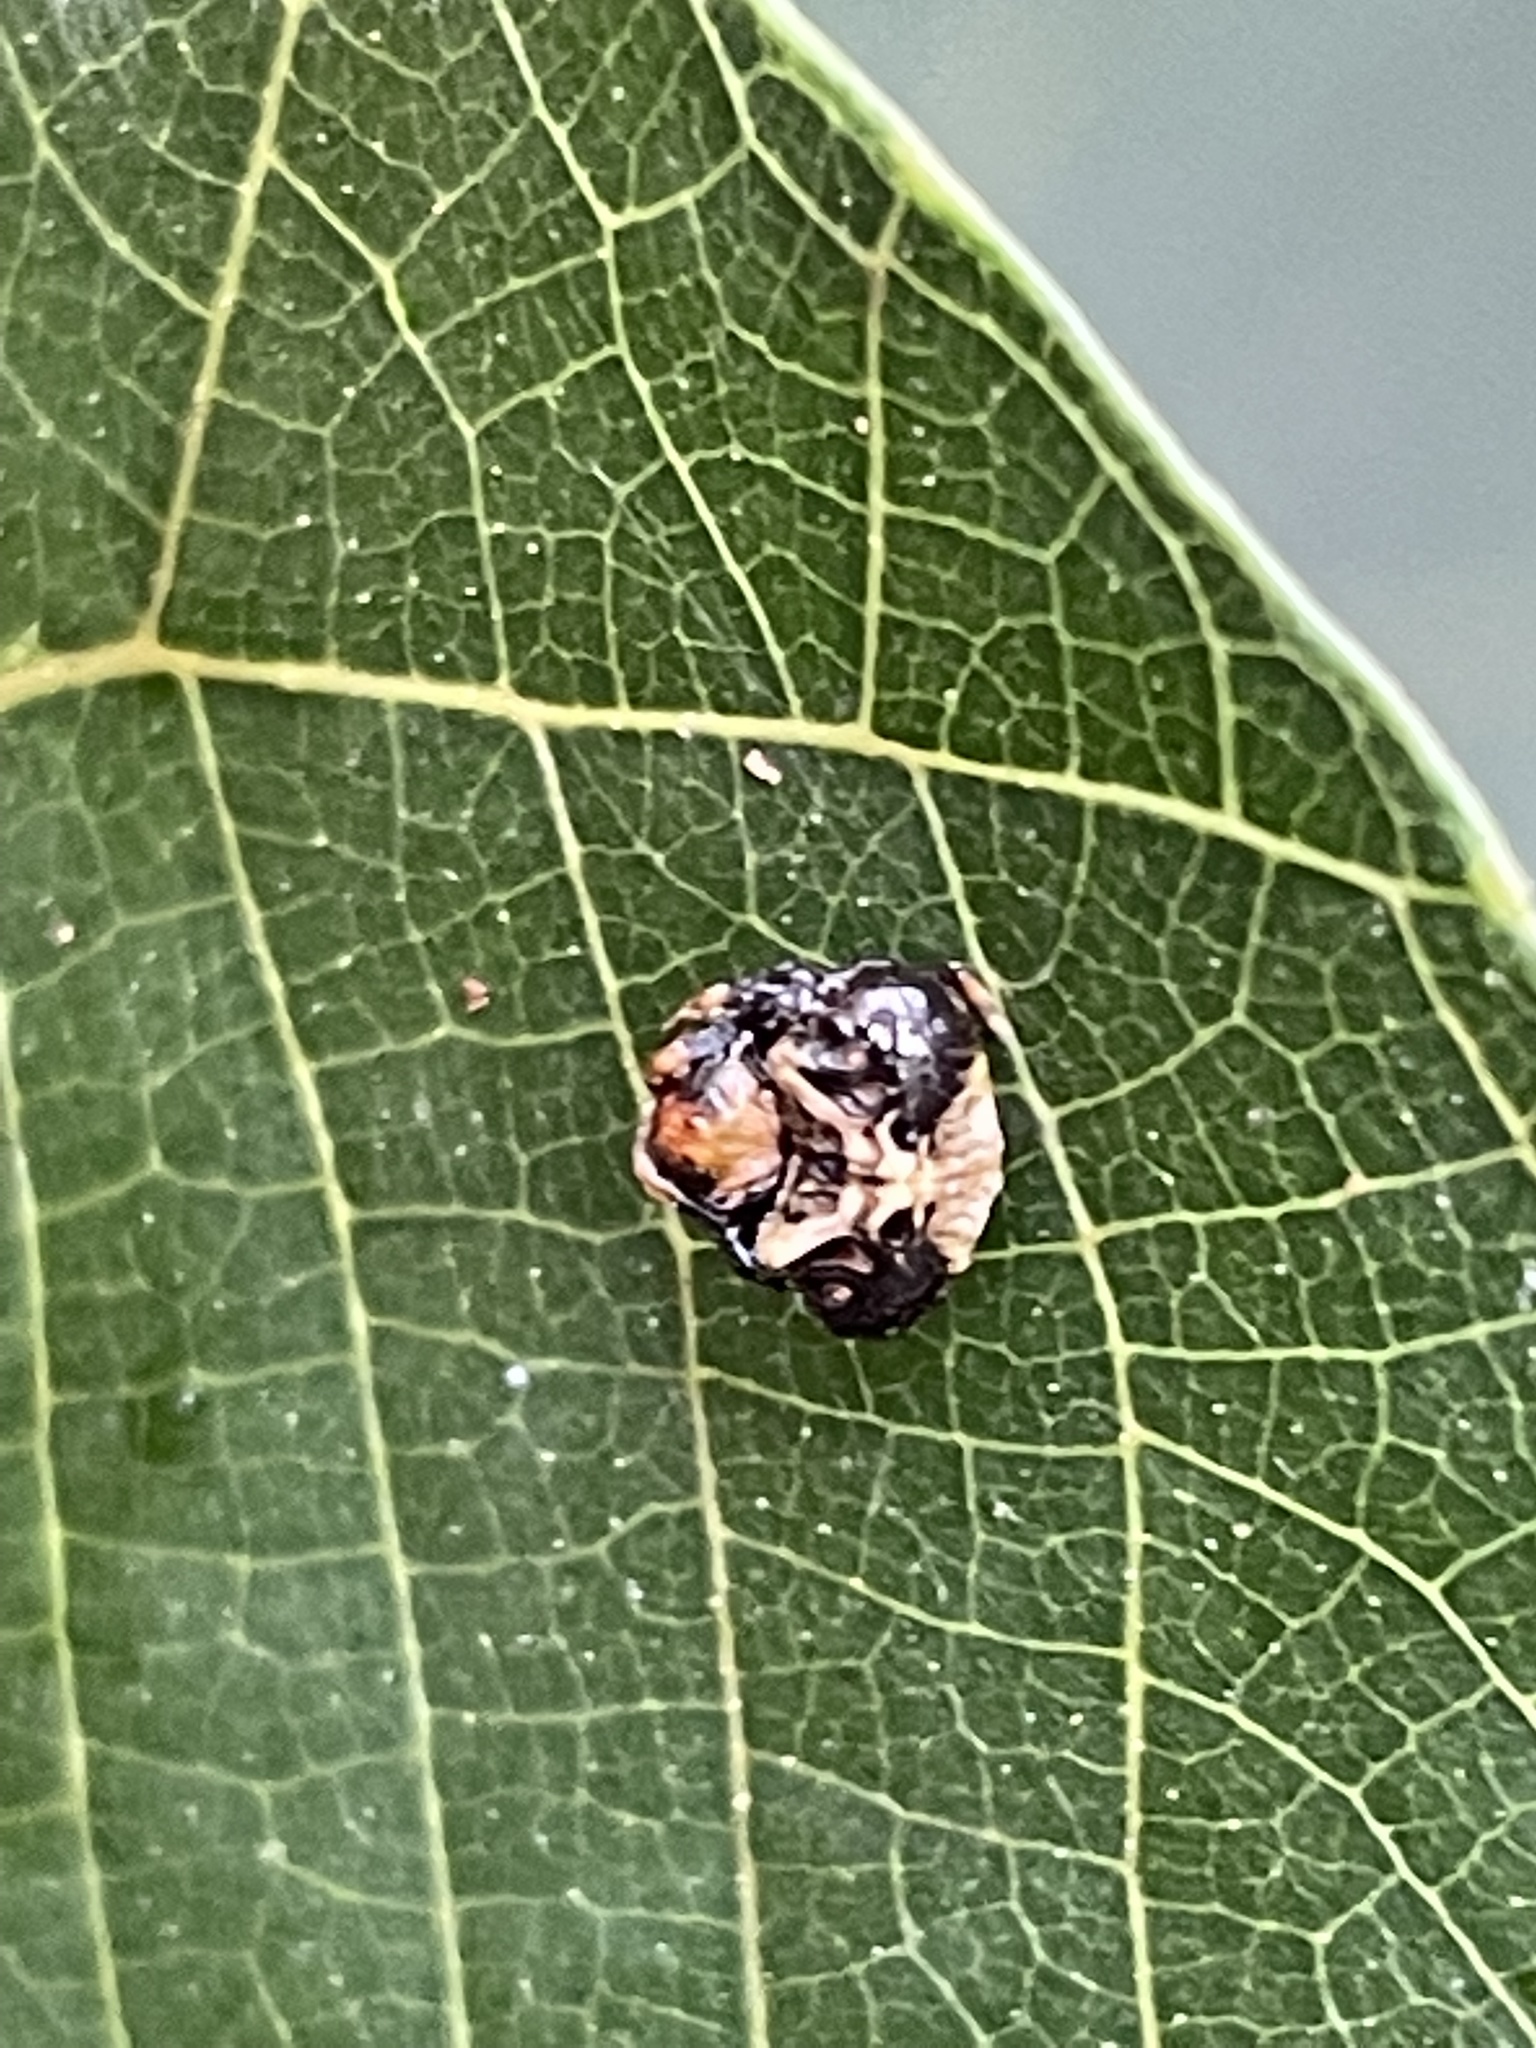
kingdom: Animalia
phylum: Arthropoda
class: Arachnida
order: Araneae
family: Arkyidae
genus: Arkys
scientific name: Arkys curtulus
